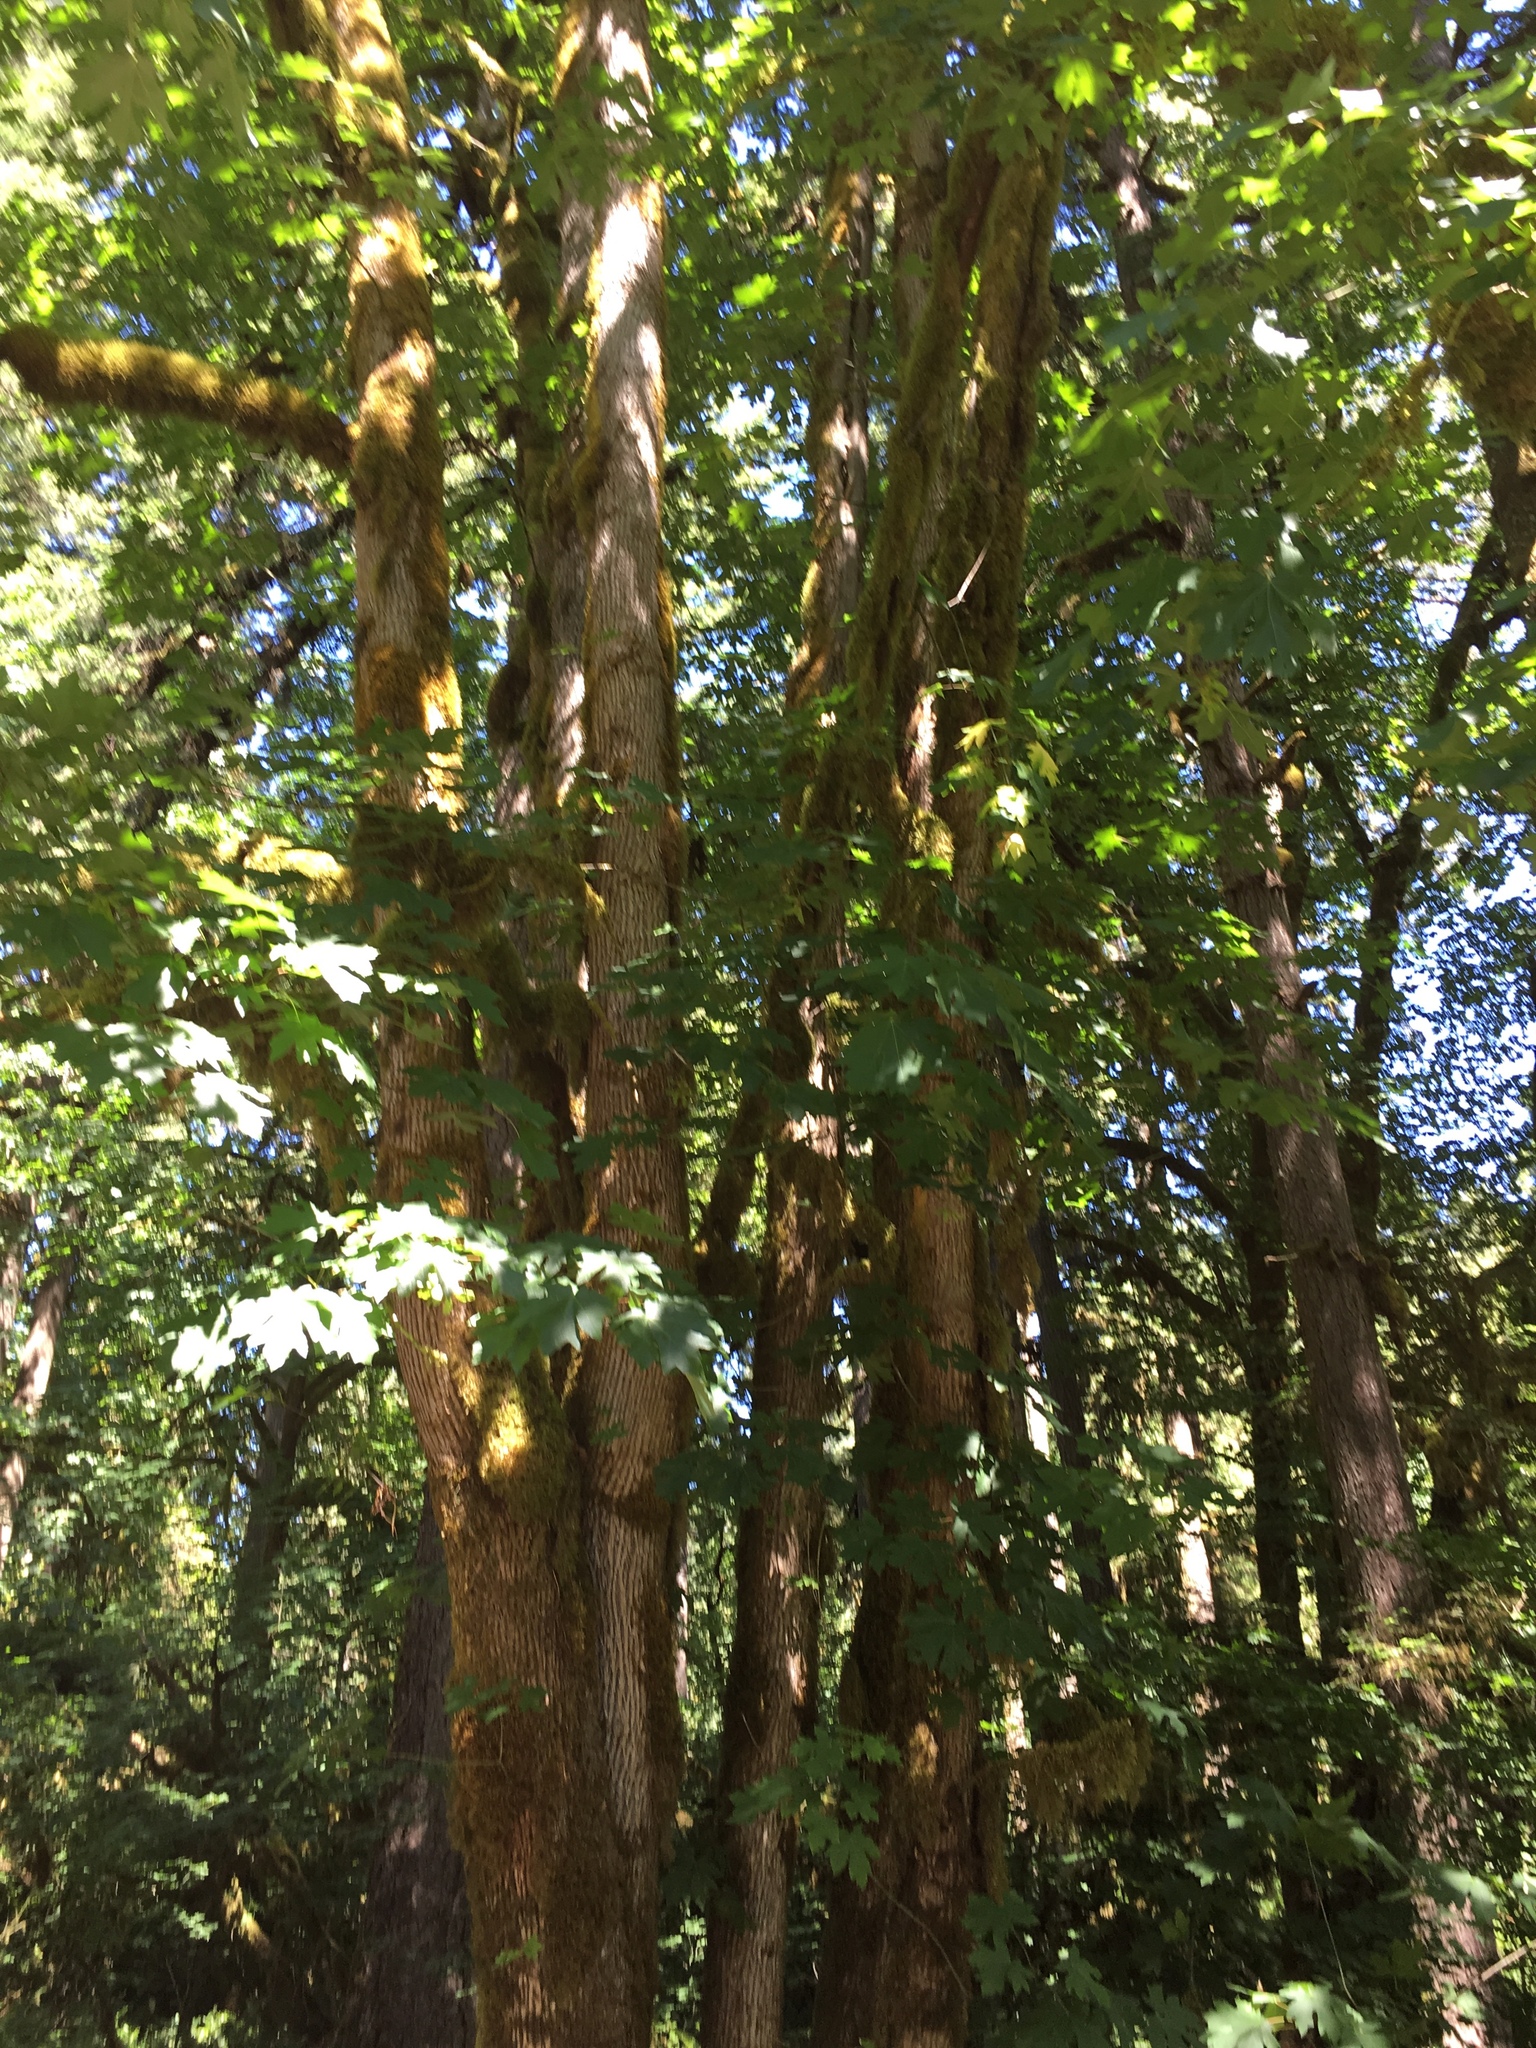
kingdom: Plantae
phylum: Tracheophyta
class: Magnoliopsida
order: Sapindales
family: Sapindaceae
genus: Acer
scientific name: Acer macrophyllum
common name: Oregon maple
